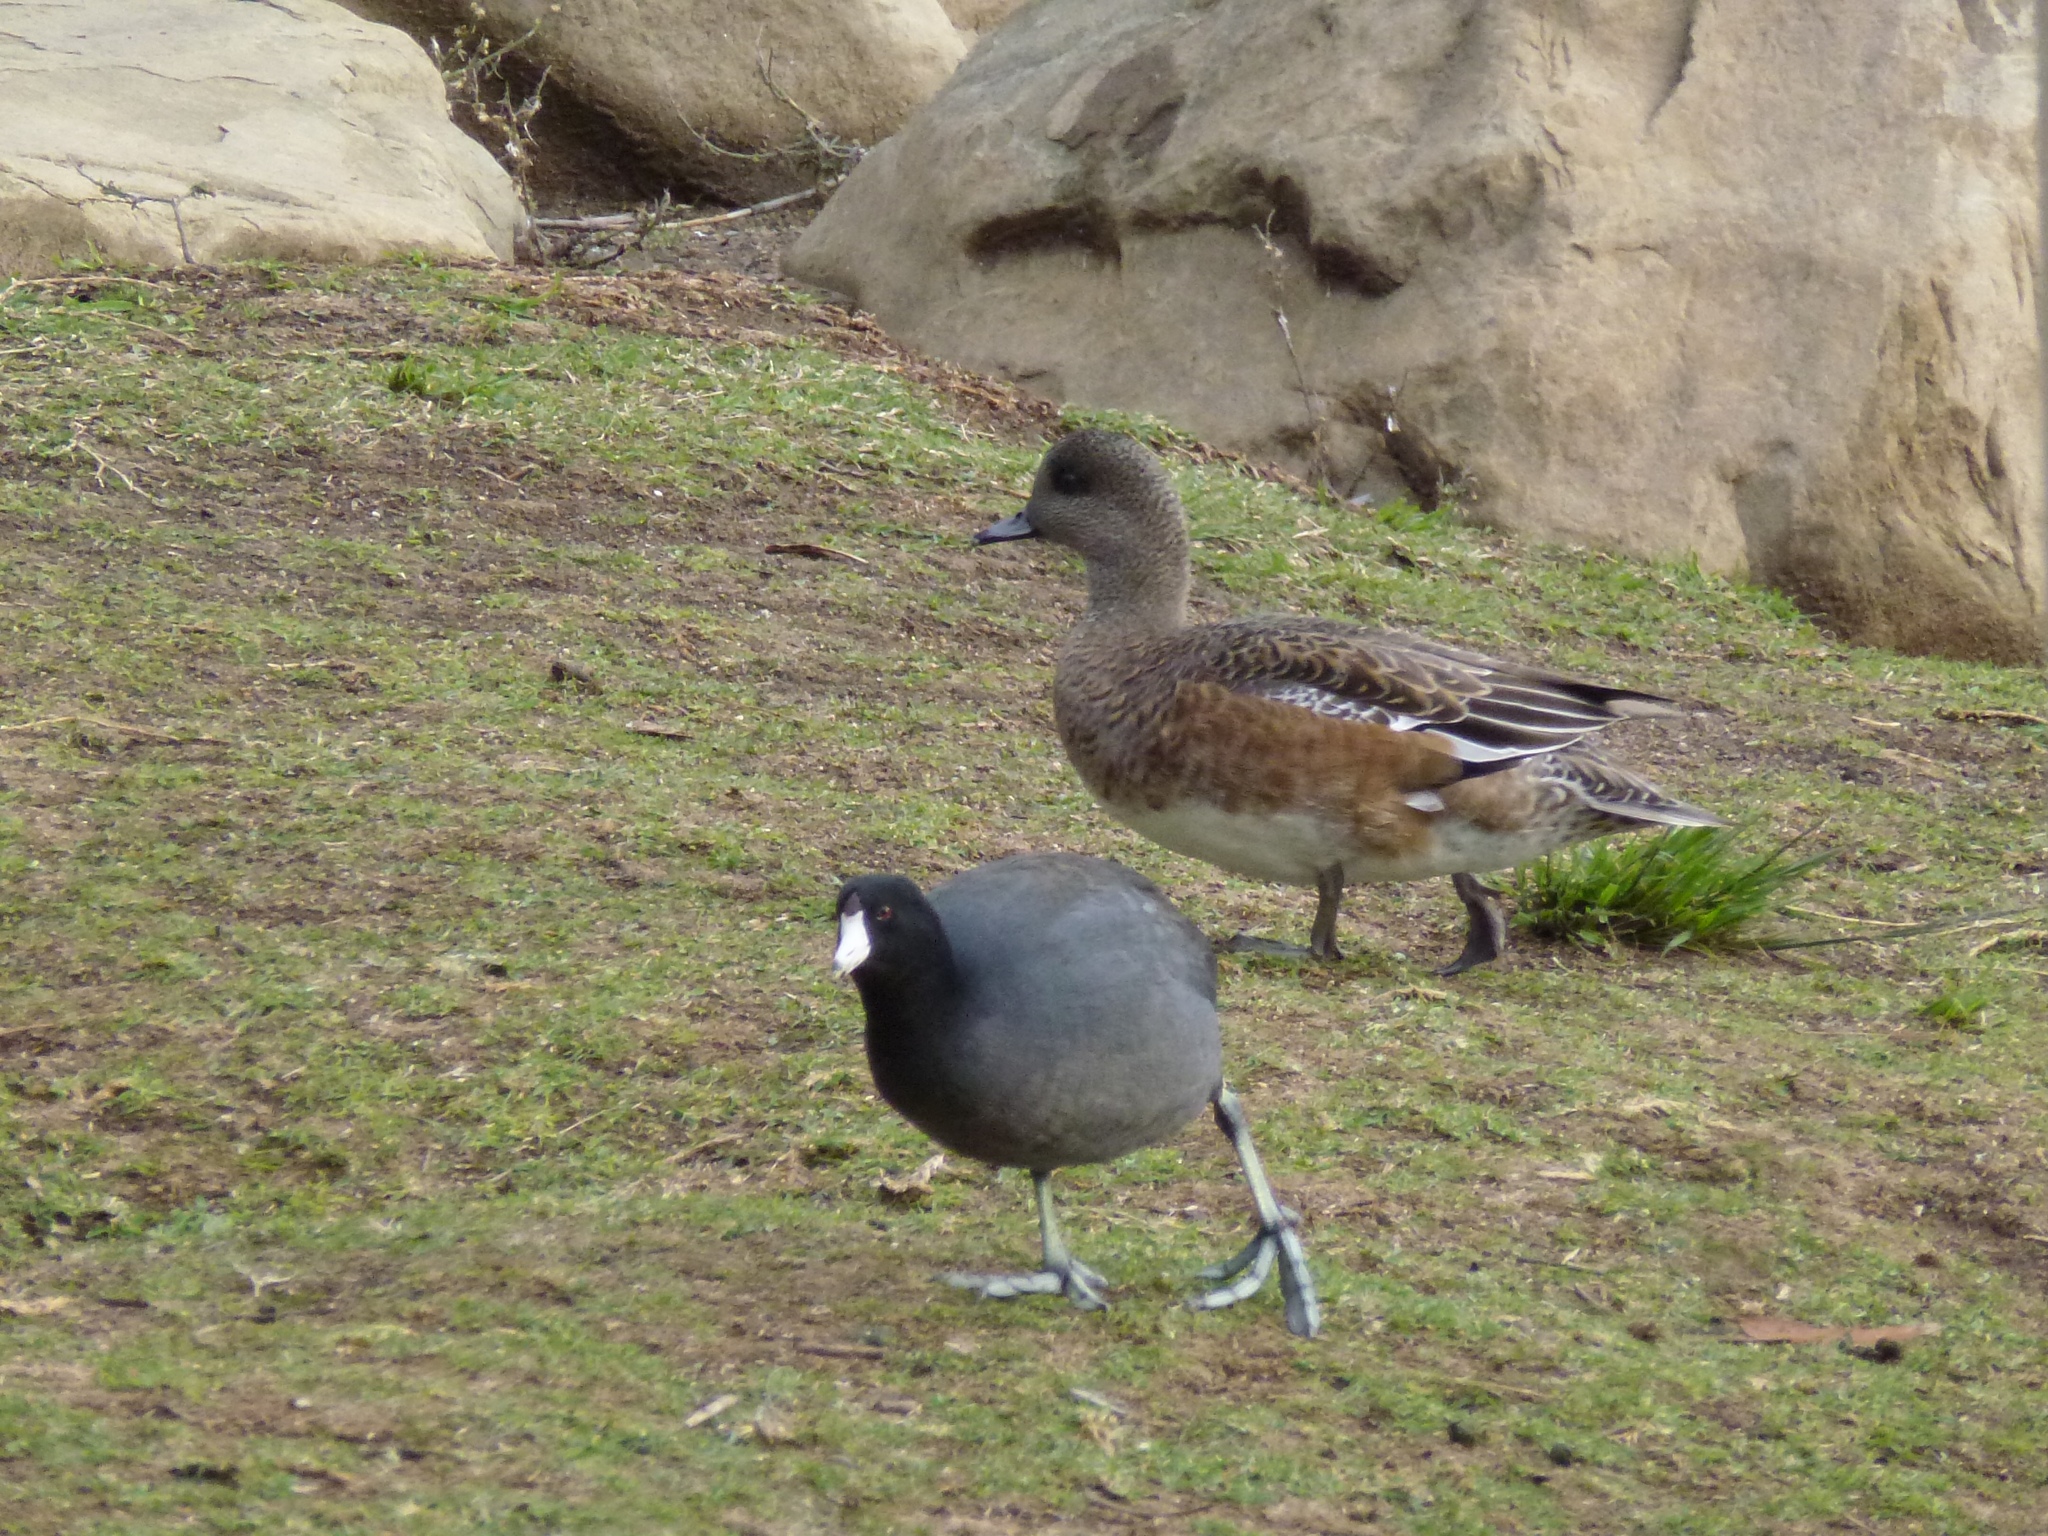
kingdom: Animalia
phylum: Chordata
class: Aves
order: Gruiformes
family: Rallidae
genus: Fulica
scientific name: Fulica americana
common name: American coot
